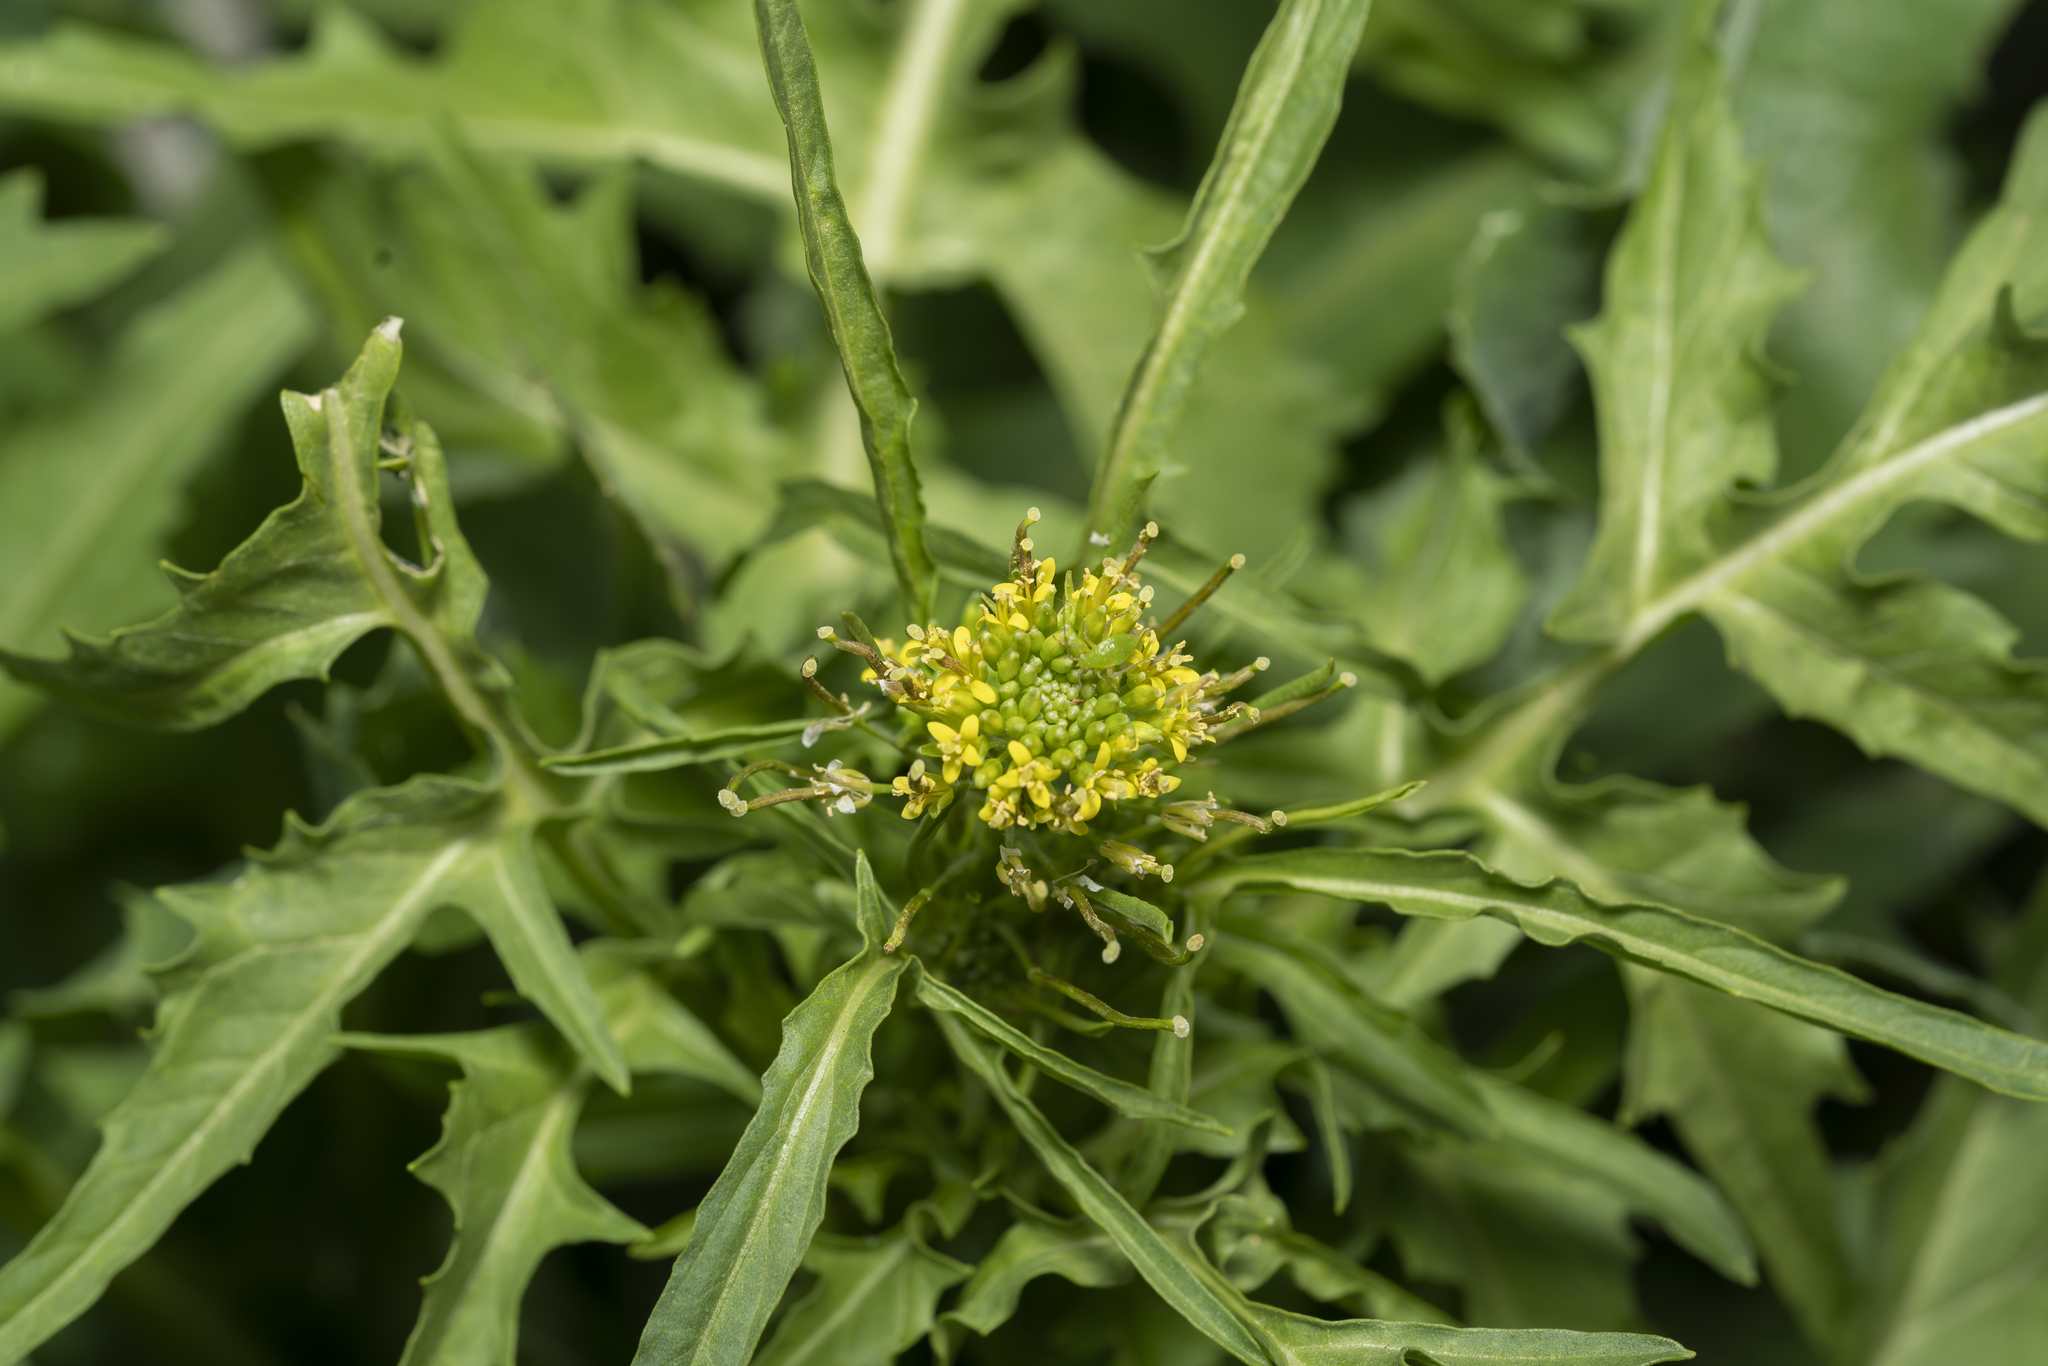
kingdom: Plantae
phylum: Tracheophyta
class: Magnoliopsida
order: Brassicales
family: Brassicaceae
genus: Sisymbrium
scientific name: Sisymbrium irio
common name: London rocket
